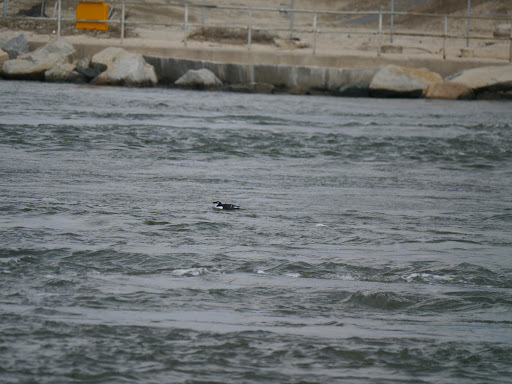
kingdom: Animalia
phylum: Chordata
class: Aves
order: Charadriiformes
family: Alcidae
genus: Alca
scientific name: Alca torda
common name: Razorbill
